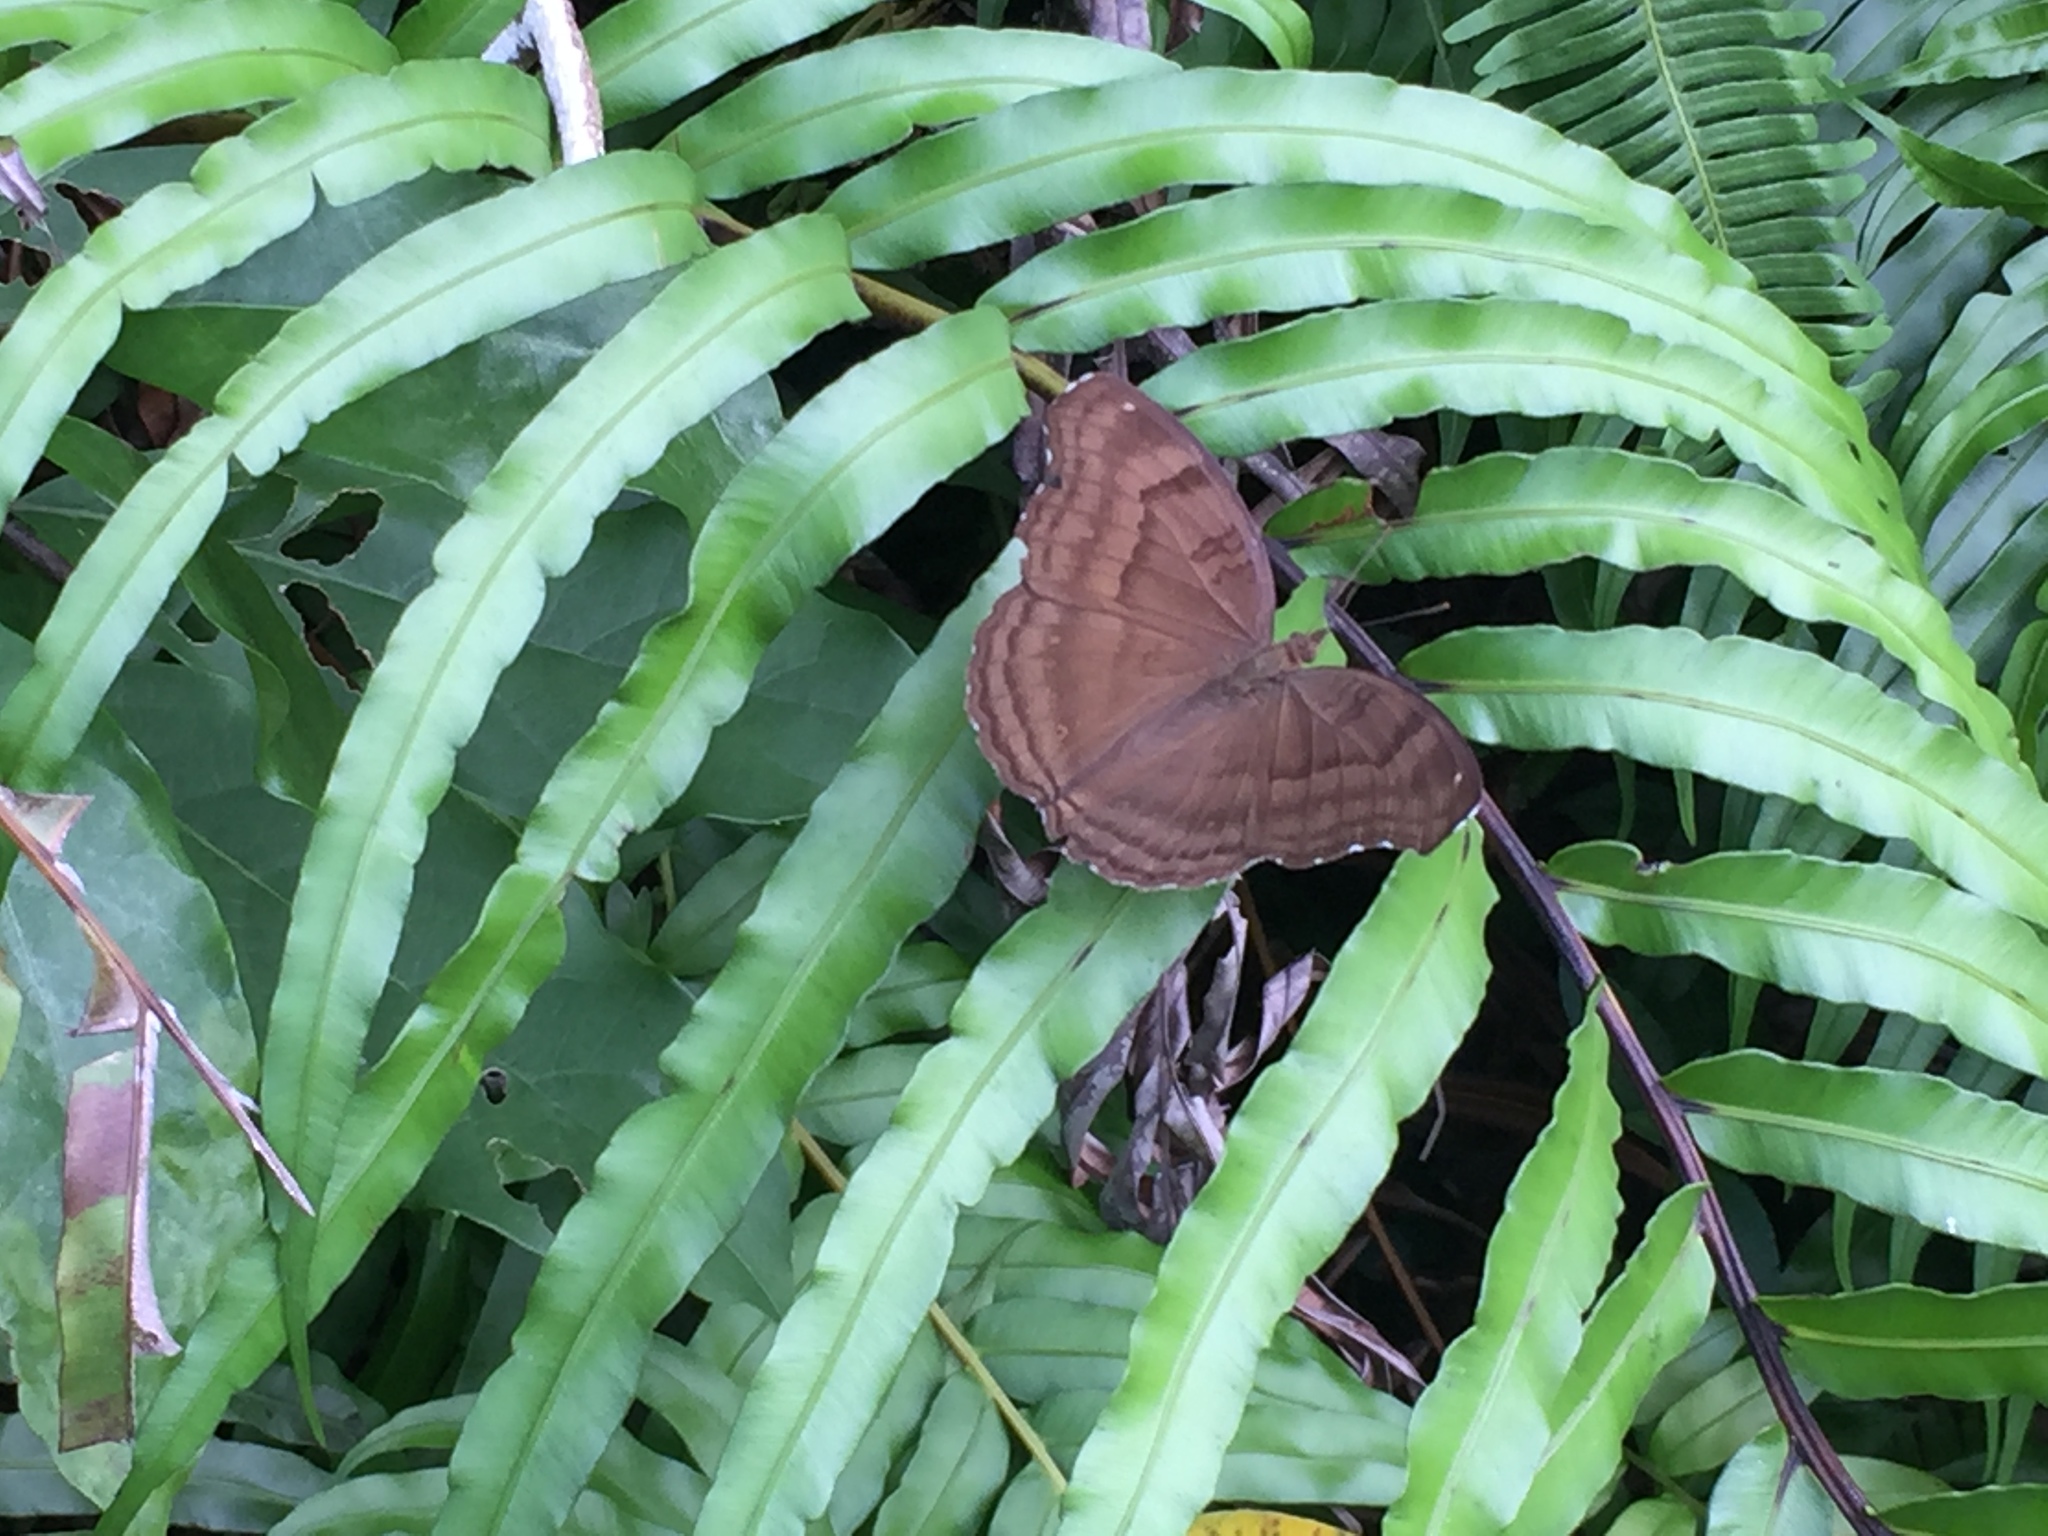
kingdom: Animalia
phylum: Arthropoda
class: Insecta
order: Lepidoptera
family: Nymphalidae
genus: Junonia
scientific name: Junonia iphita
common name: Chocolate pansy
